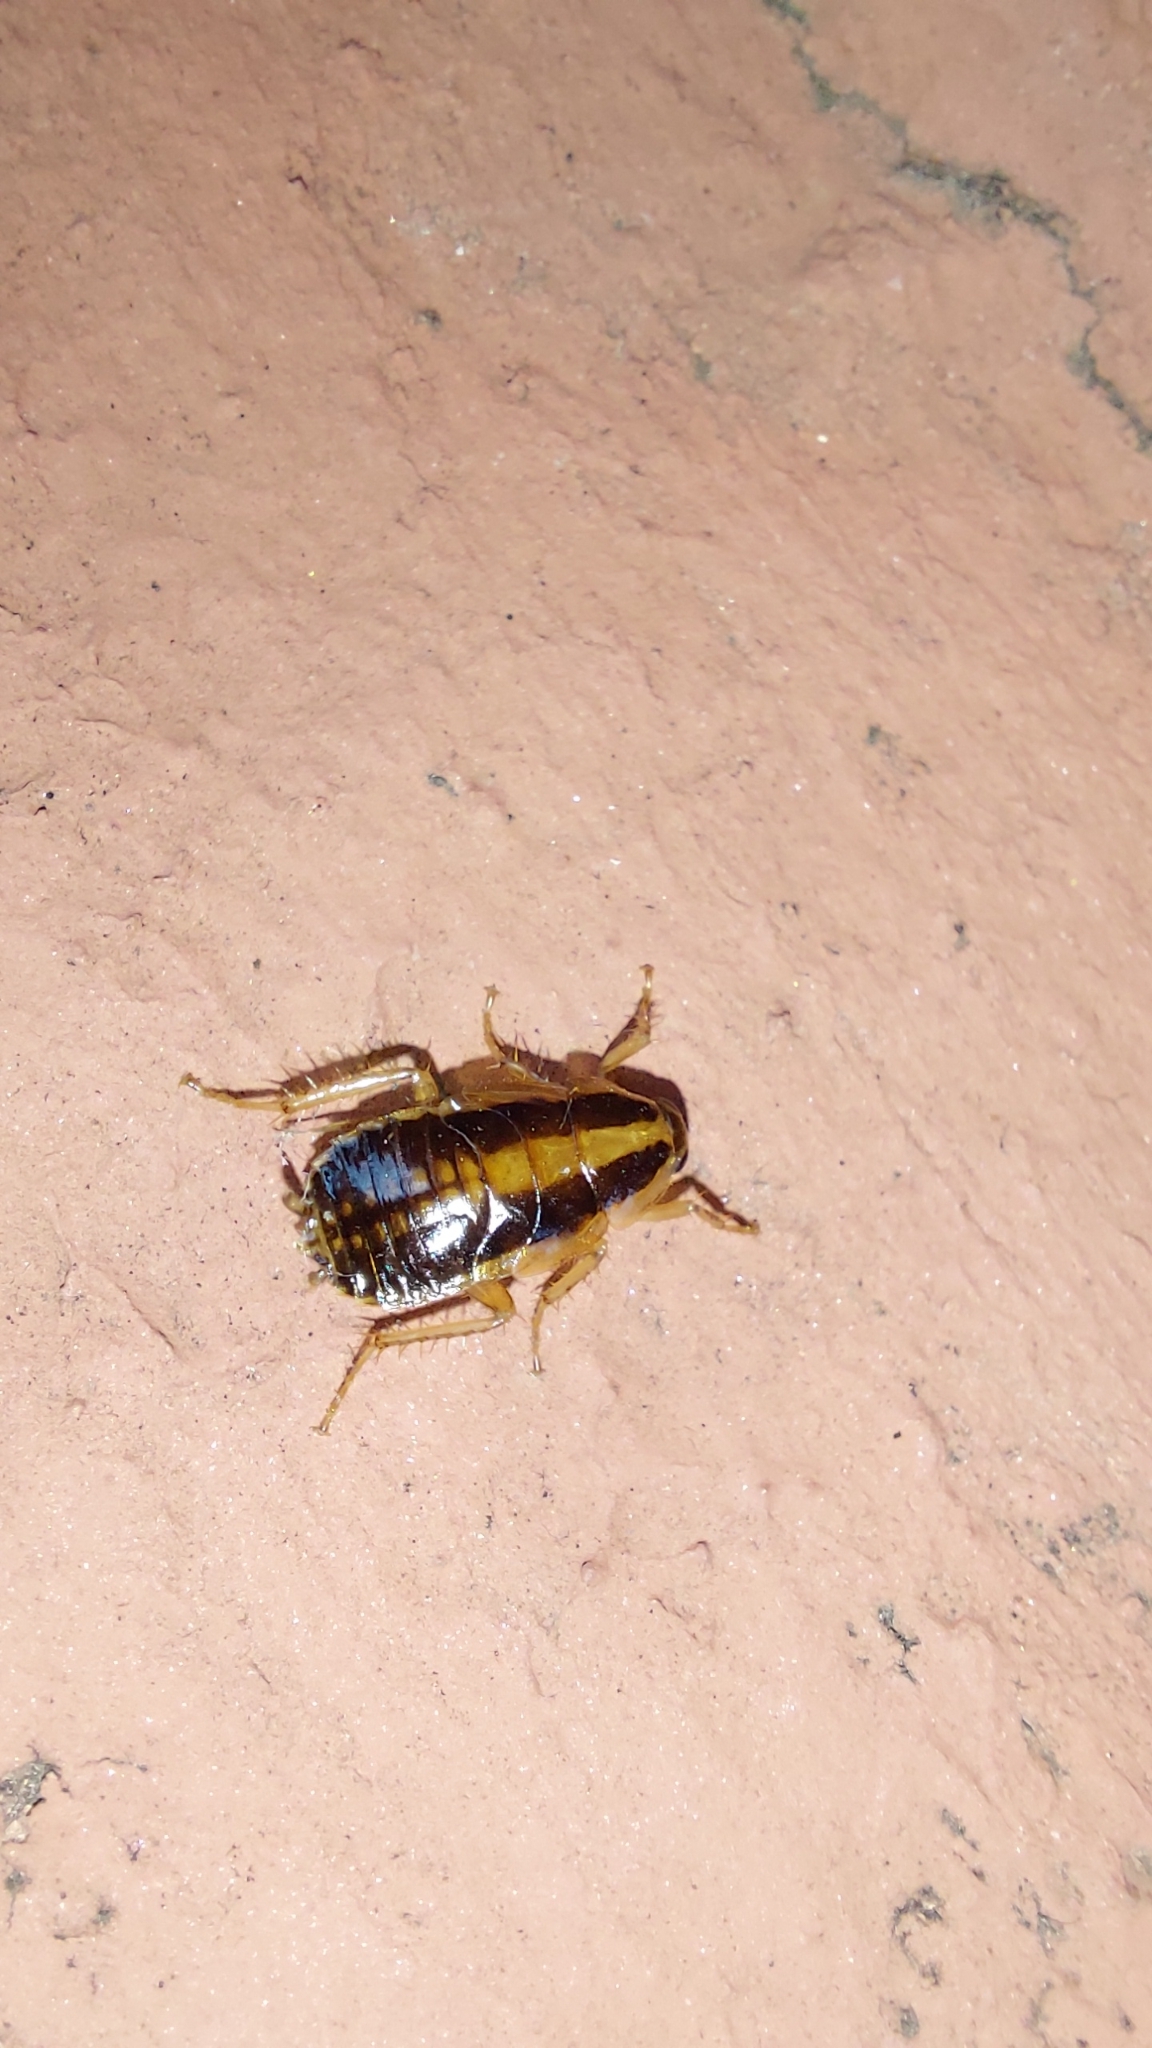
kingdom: Animalia
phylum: Arthropoda
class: Insecta
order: Blattodea
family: Ectobiidae
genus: Blattella
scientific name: Blattella germanica
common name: German cockroach
